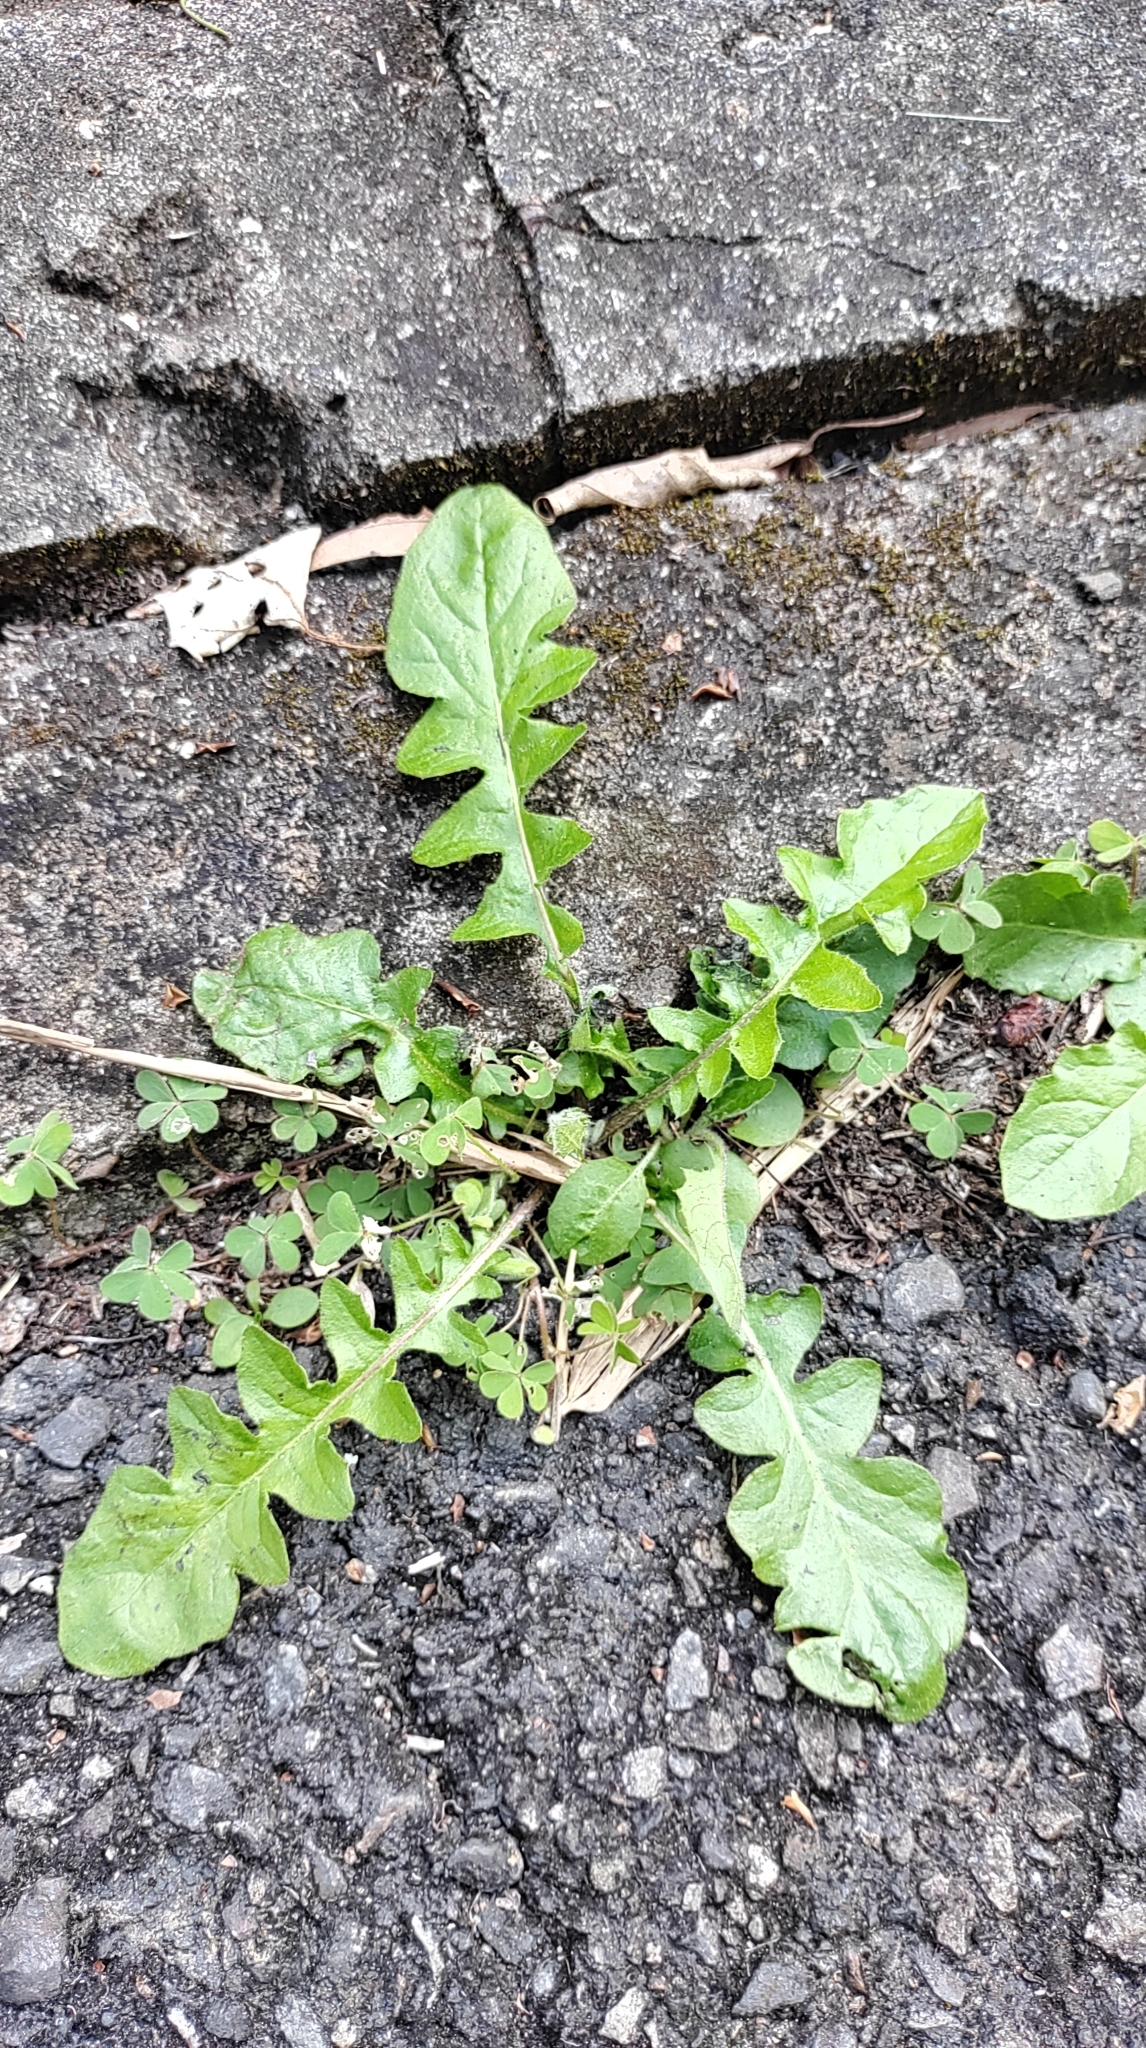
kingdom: Plantae
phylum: Tracheophyta
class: Magnoliopsida
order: Asterales
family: Asteraceae
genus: Youngia
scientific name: Youngia japonica
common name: Oriental false hawksbeard
